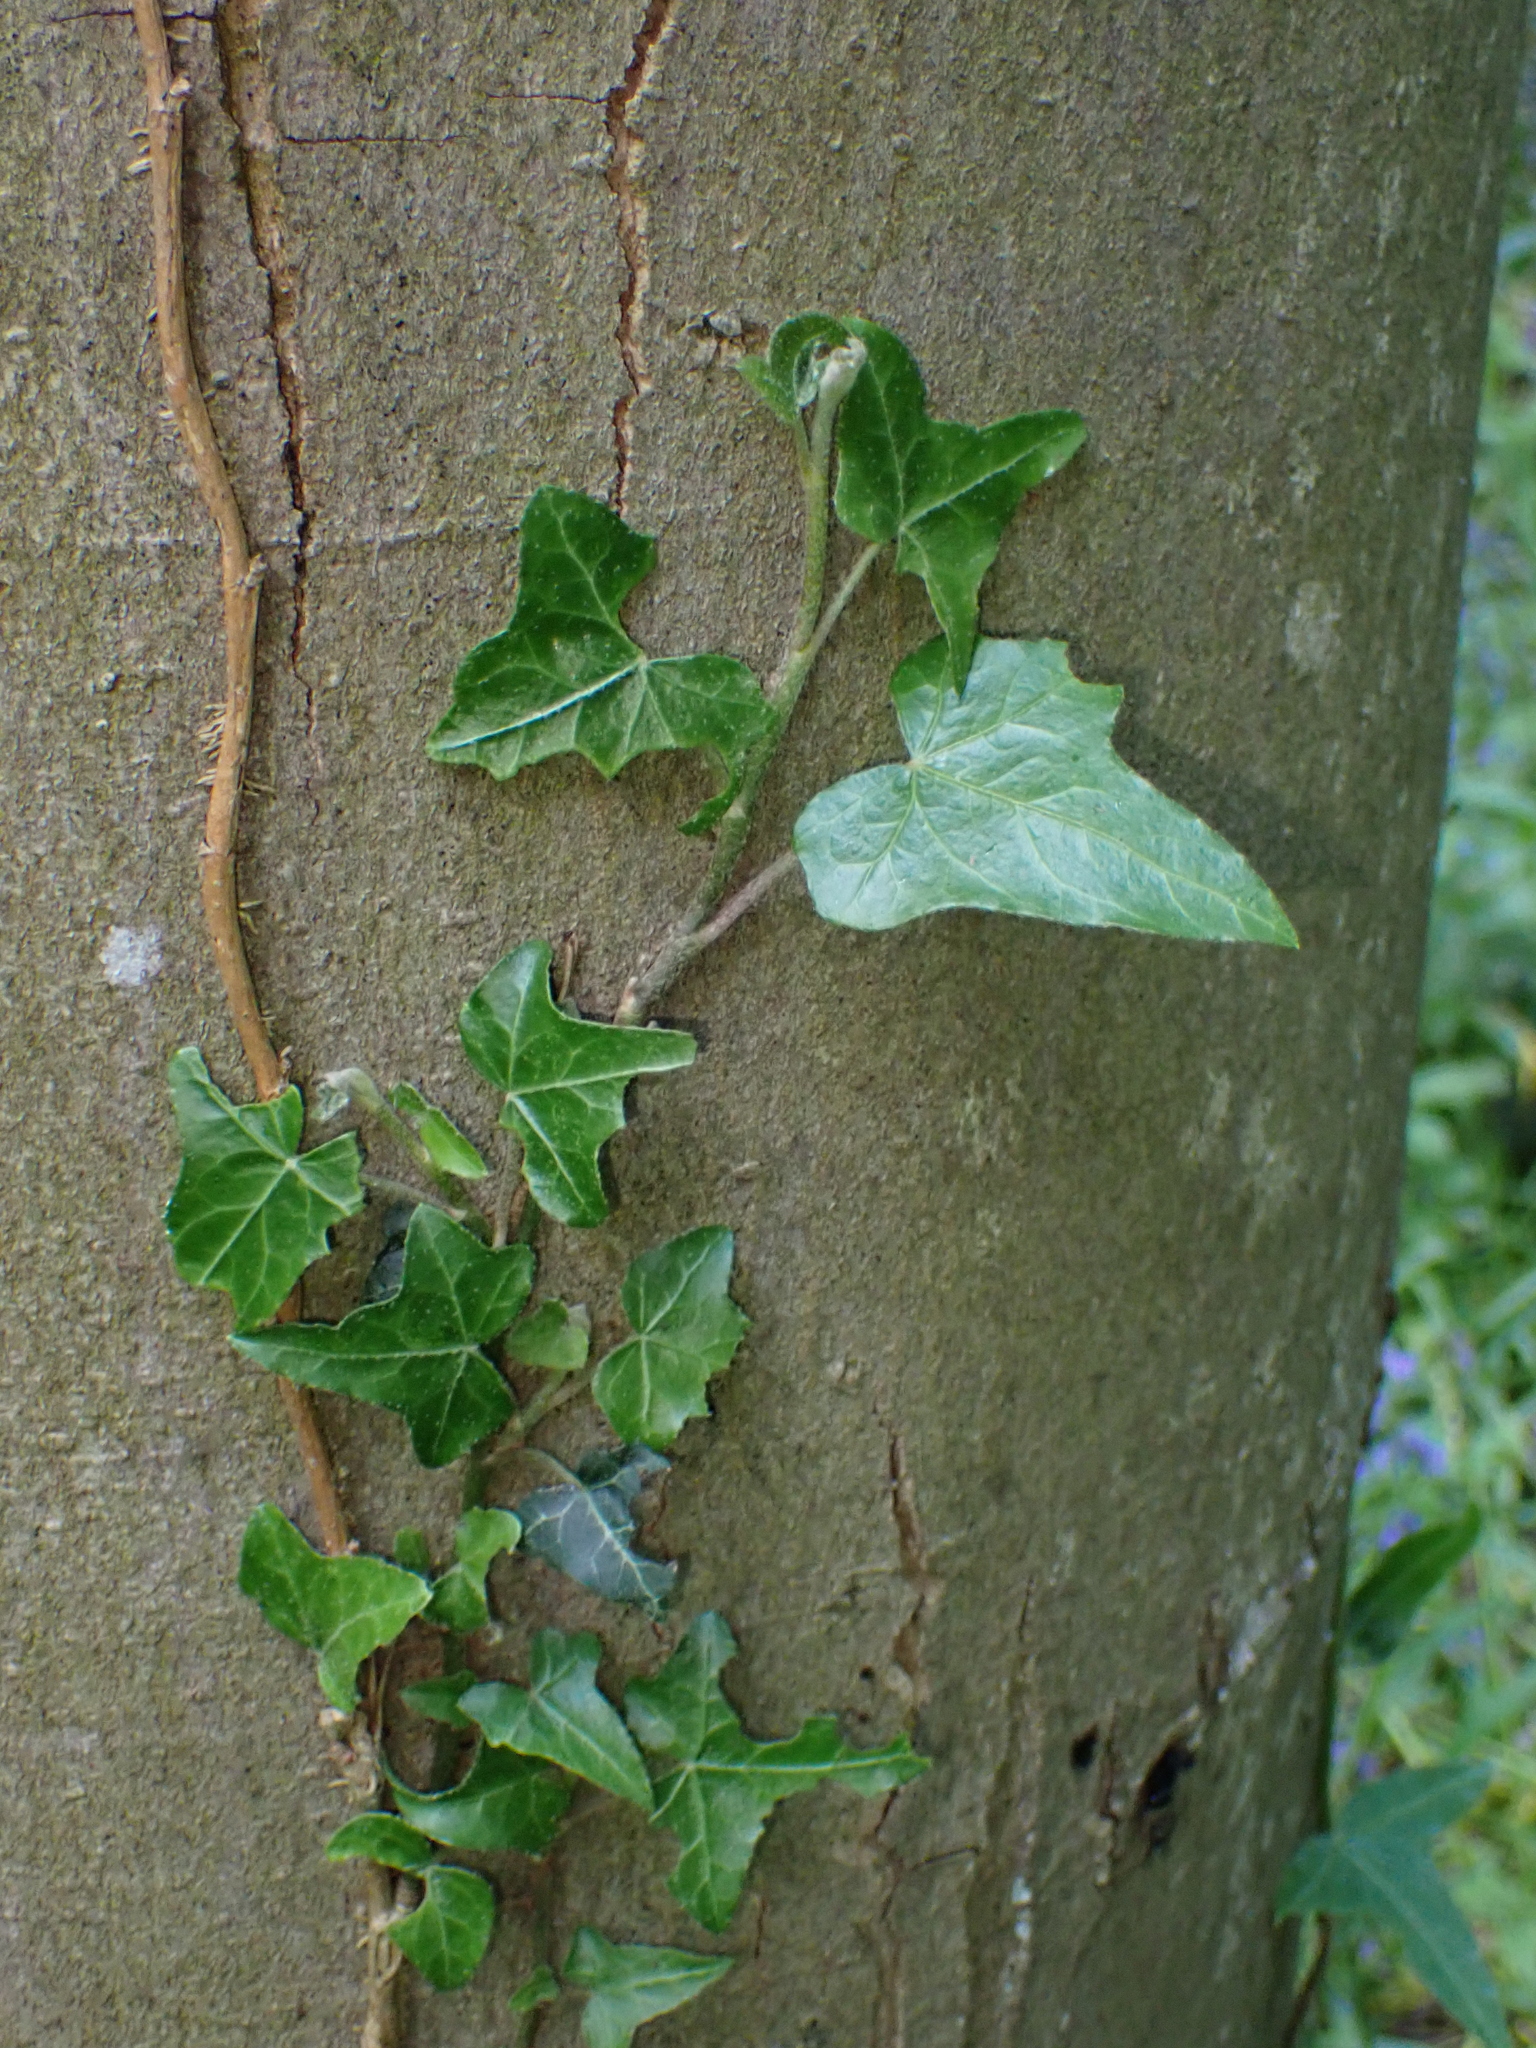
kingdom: Plantae
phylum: Tracheophyta
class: Magnoliopsida
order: Apiales
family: Araliaceae
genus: Hedera
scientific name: Hedera helix
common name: Ivy
